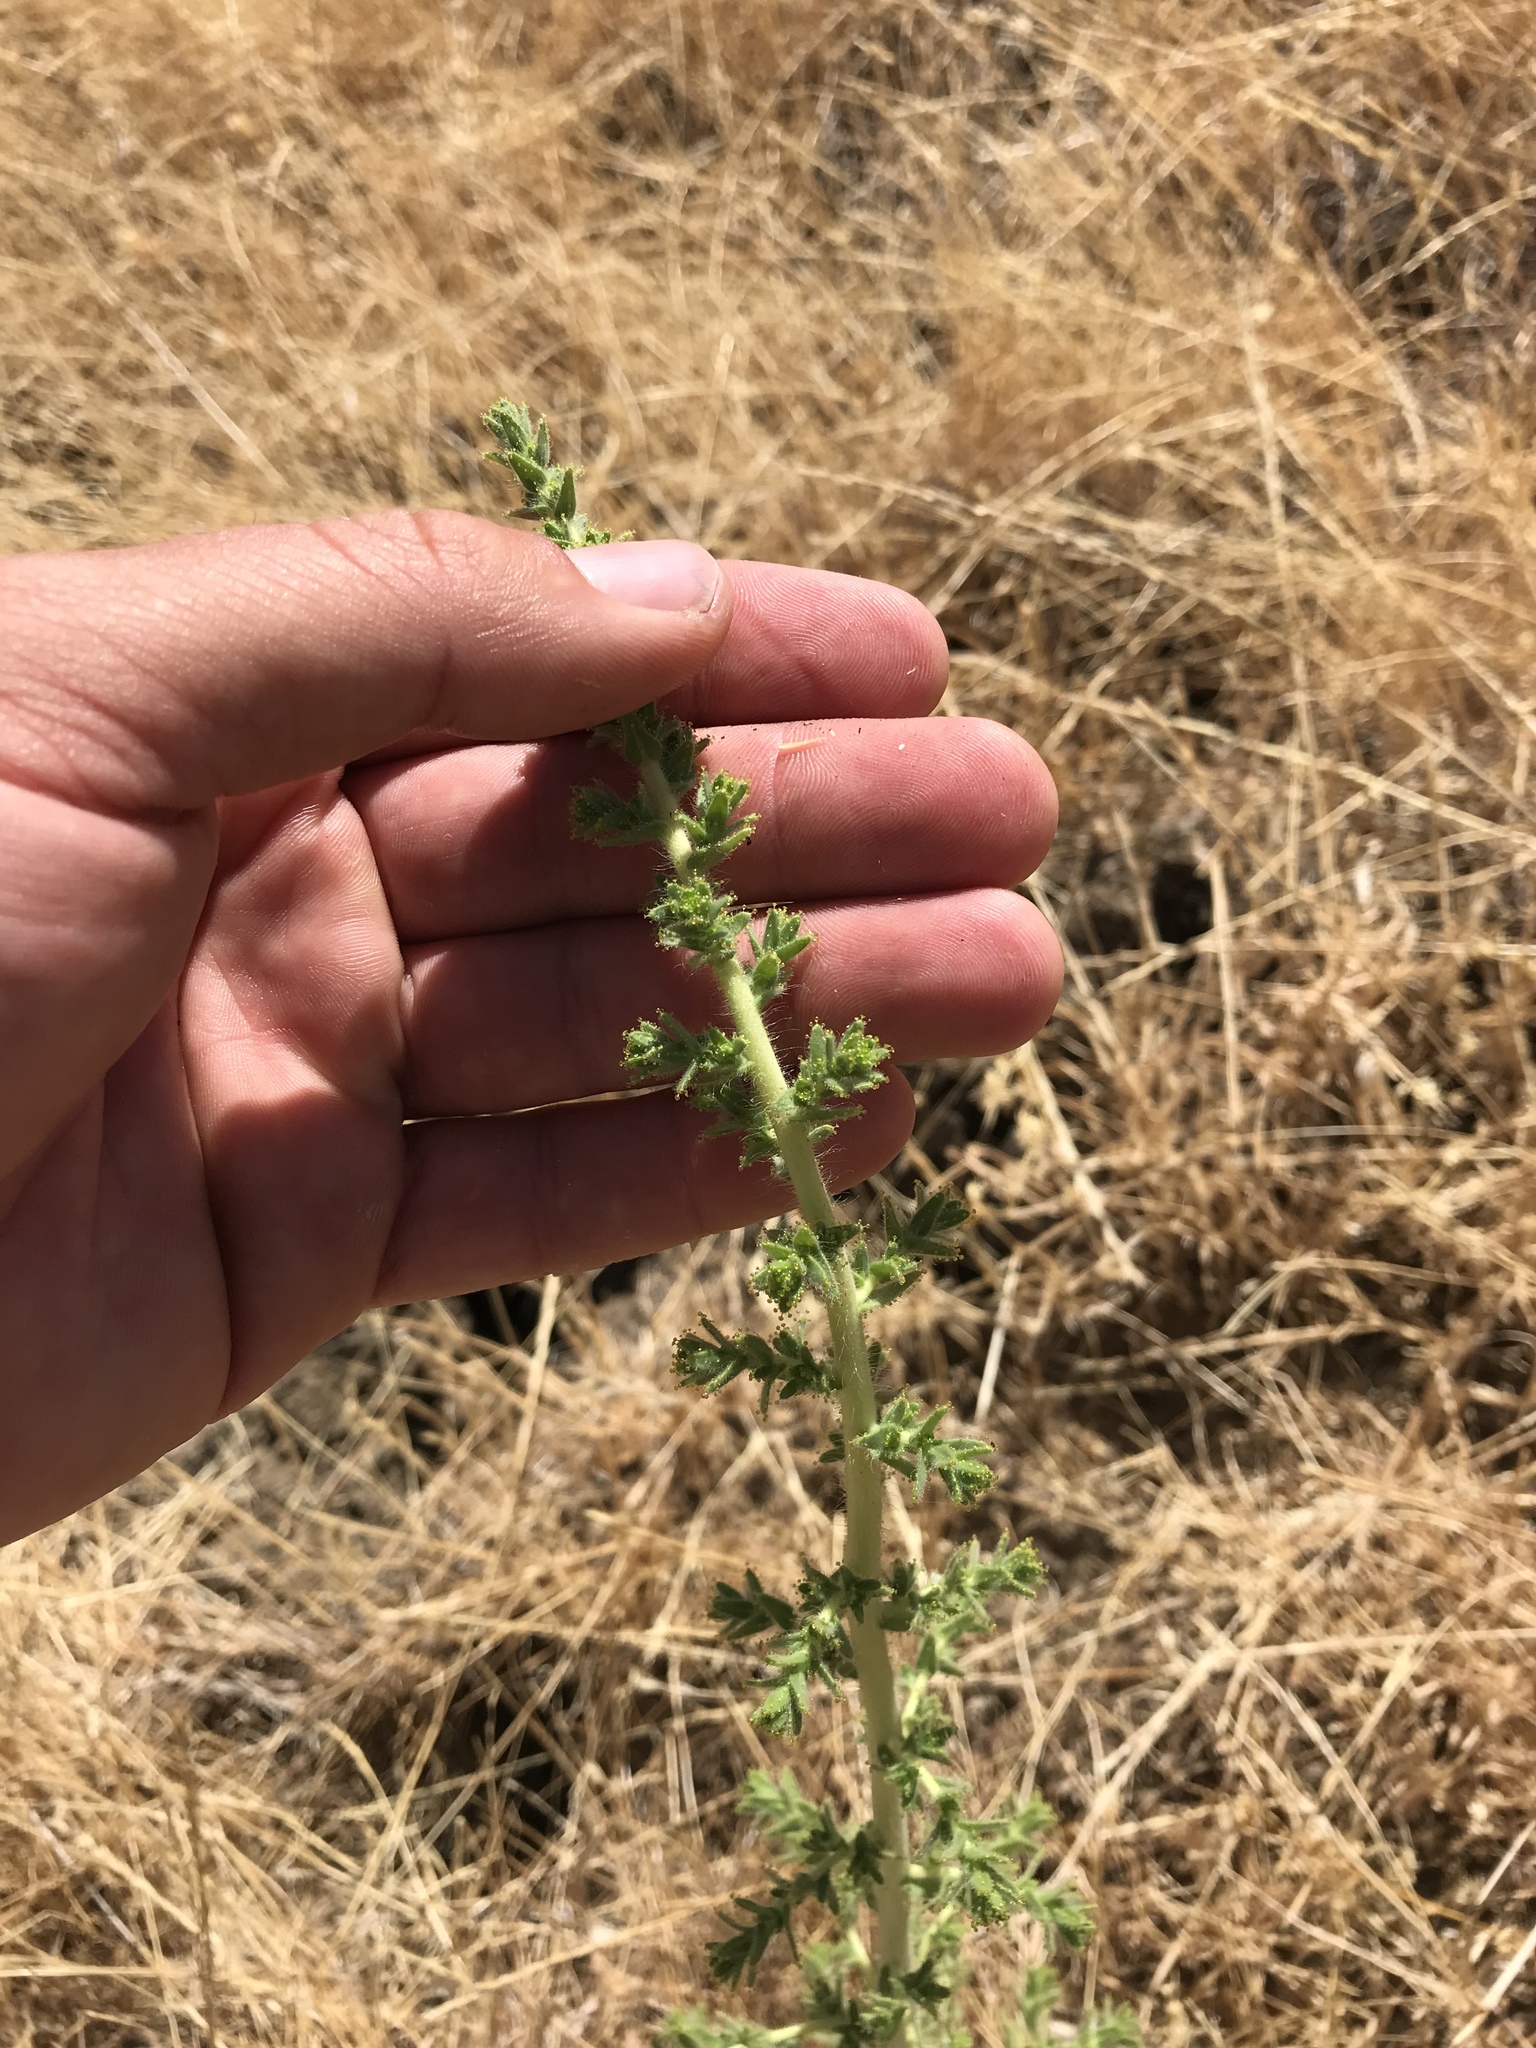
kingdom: Plantae
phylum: Tracheophyta
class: Magnoliopsida
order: Asterales
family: Asteraceae
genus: Blepharizonia
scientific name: Blepharizonia plumosa
